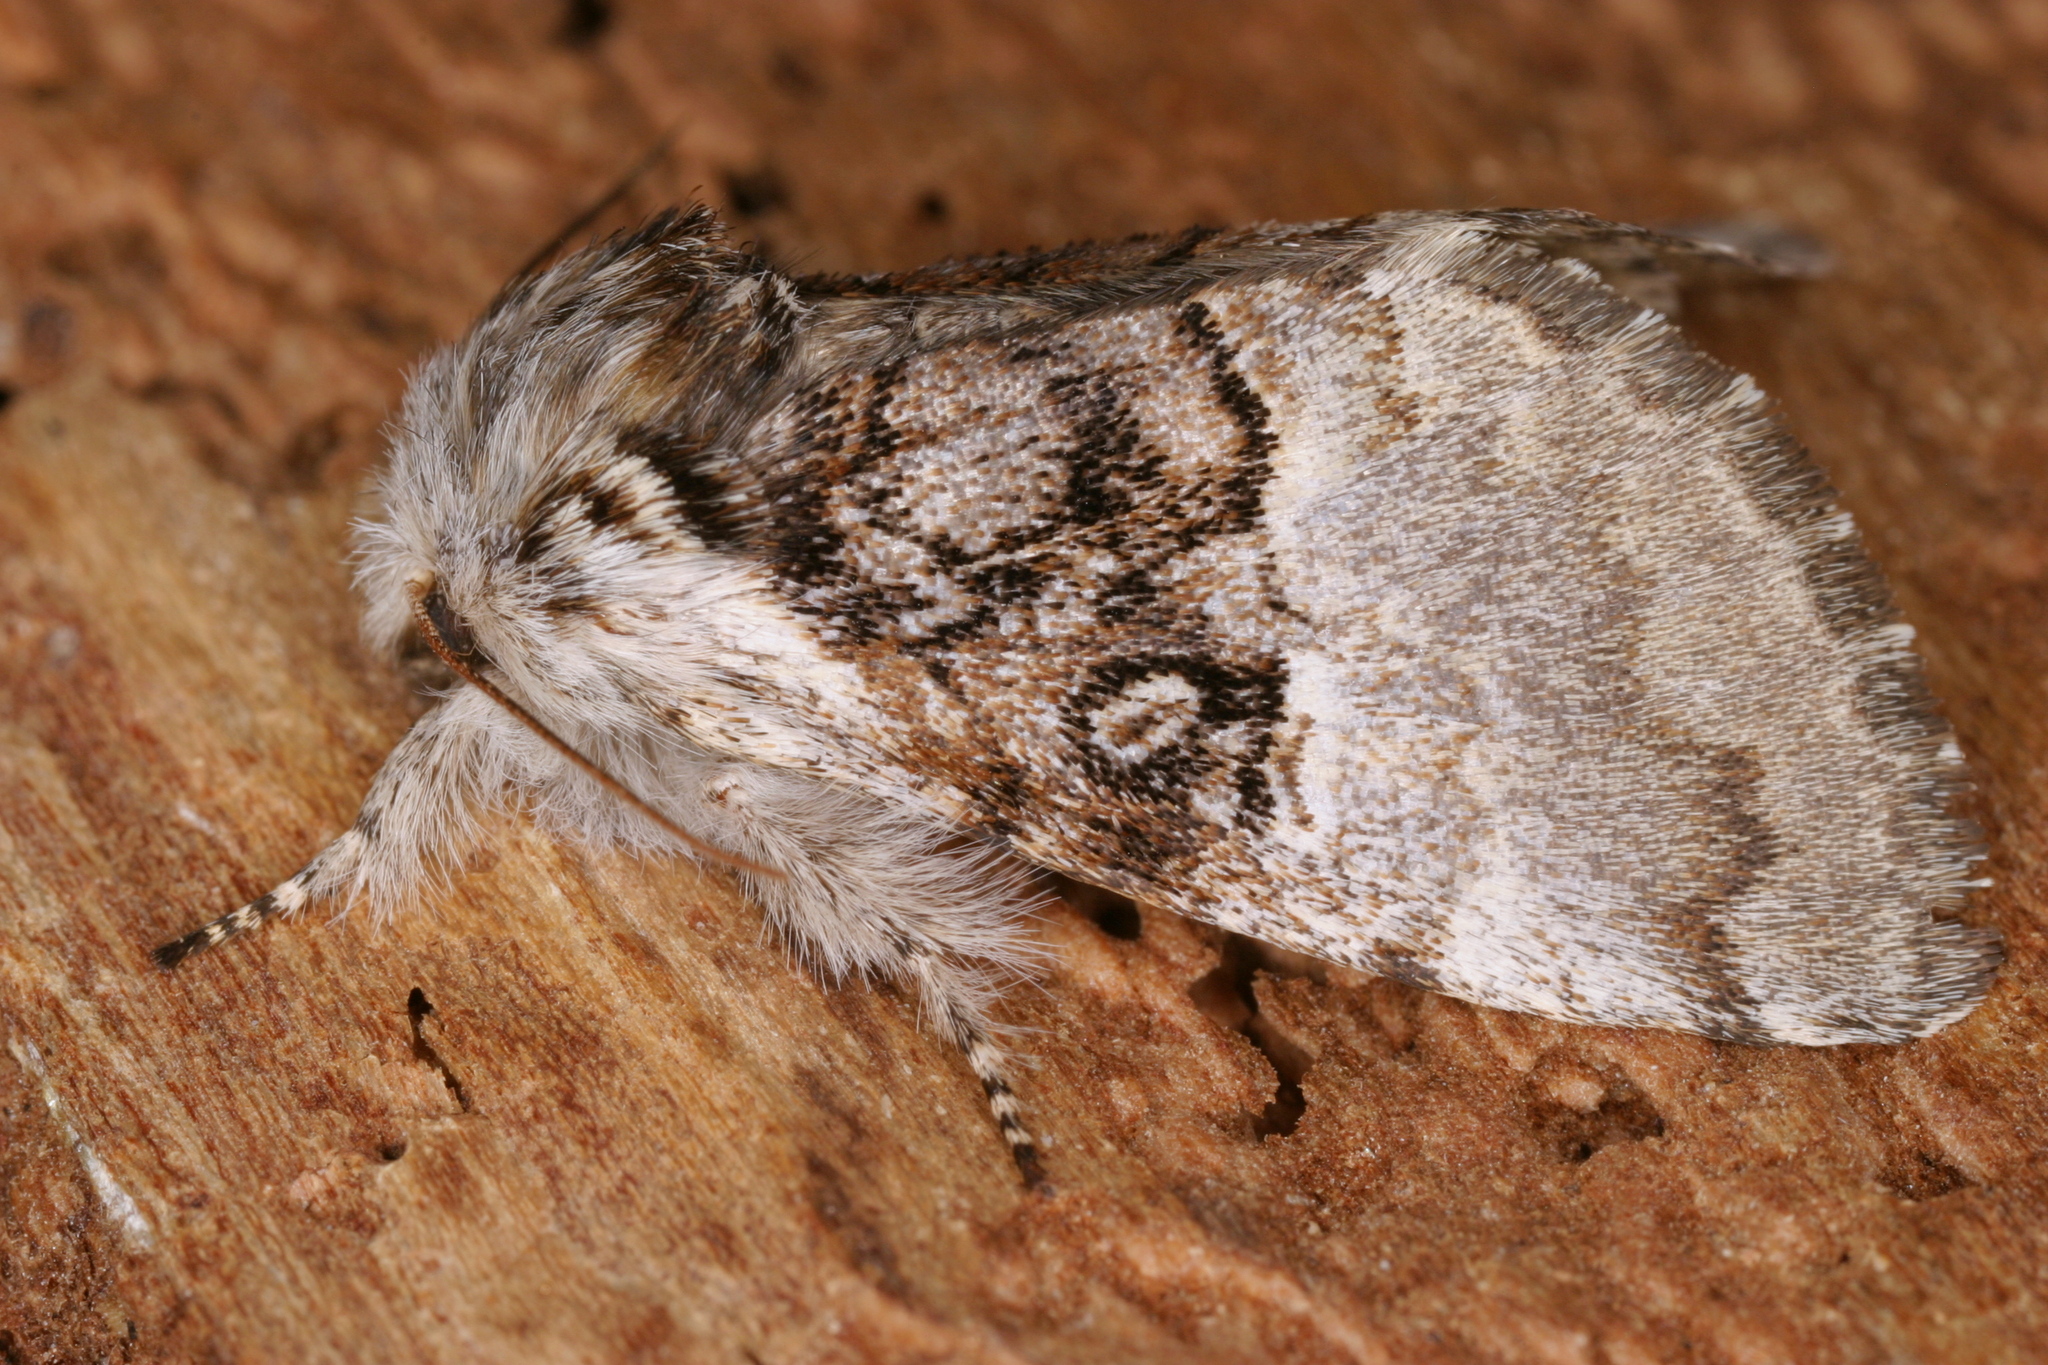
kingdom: Animalia
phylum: Arthropoda
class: Insecta
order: Lepidoptera
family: Noctuidae
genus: Colocasia
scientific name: Colocasia coryli
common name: Nut-tree tussock
